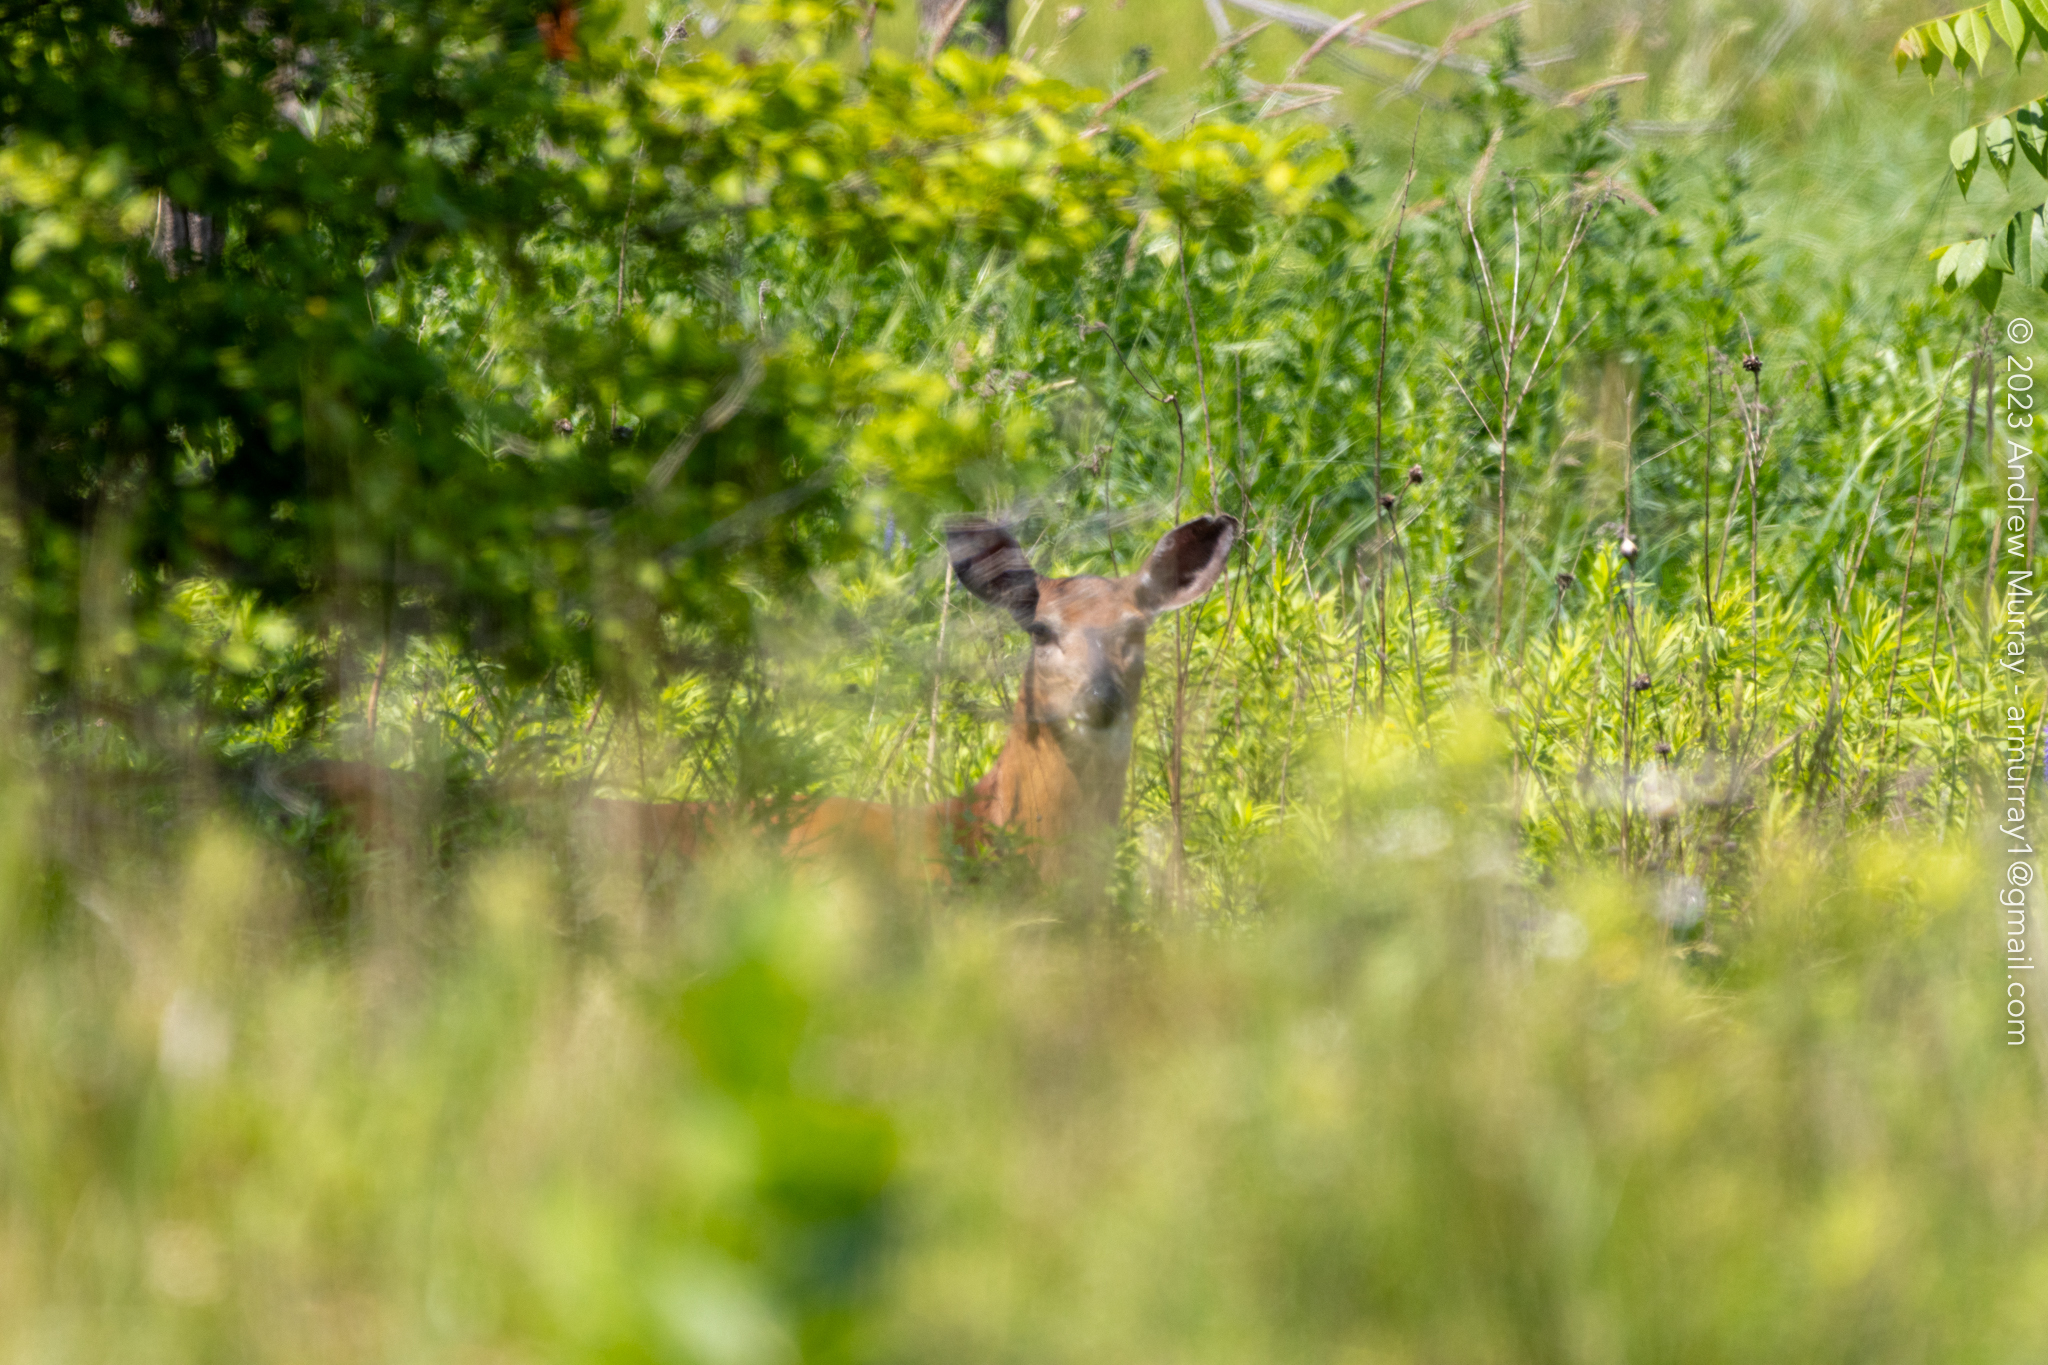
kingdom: Animalia
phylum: Chordata
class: Mammalia
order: Artiodactyla
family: Cervidae
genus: Odocoileus
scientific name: Odocoileus virginianus
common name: White-tailed deer
